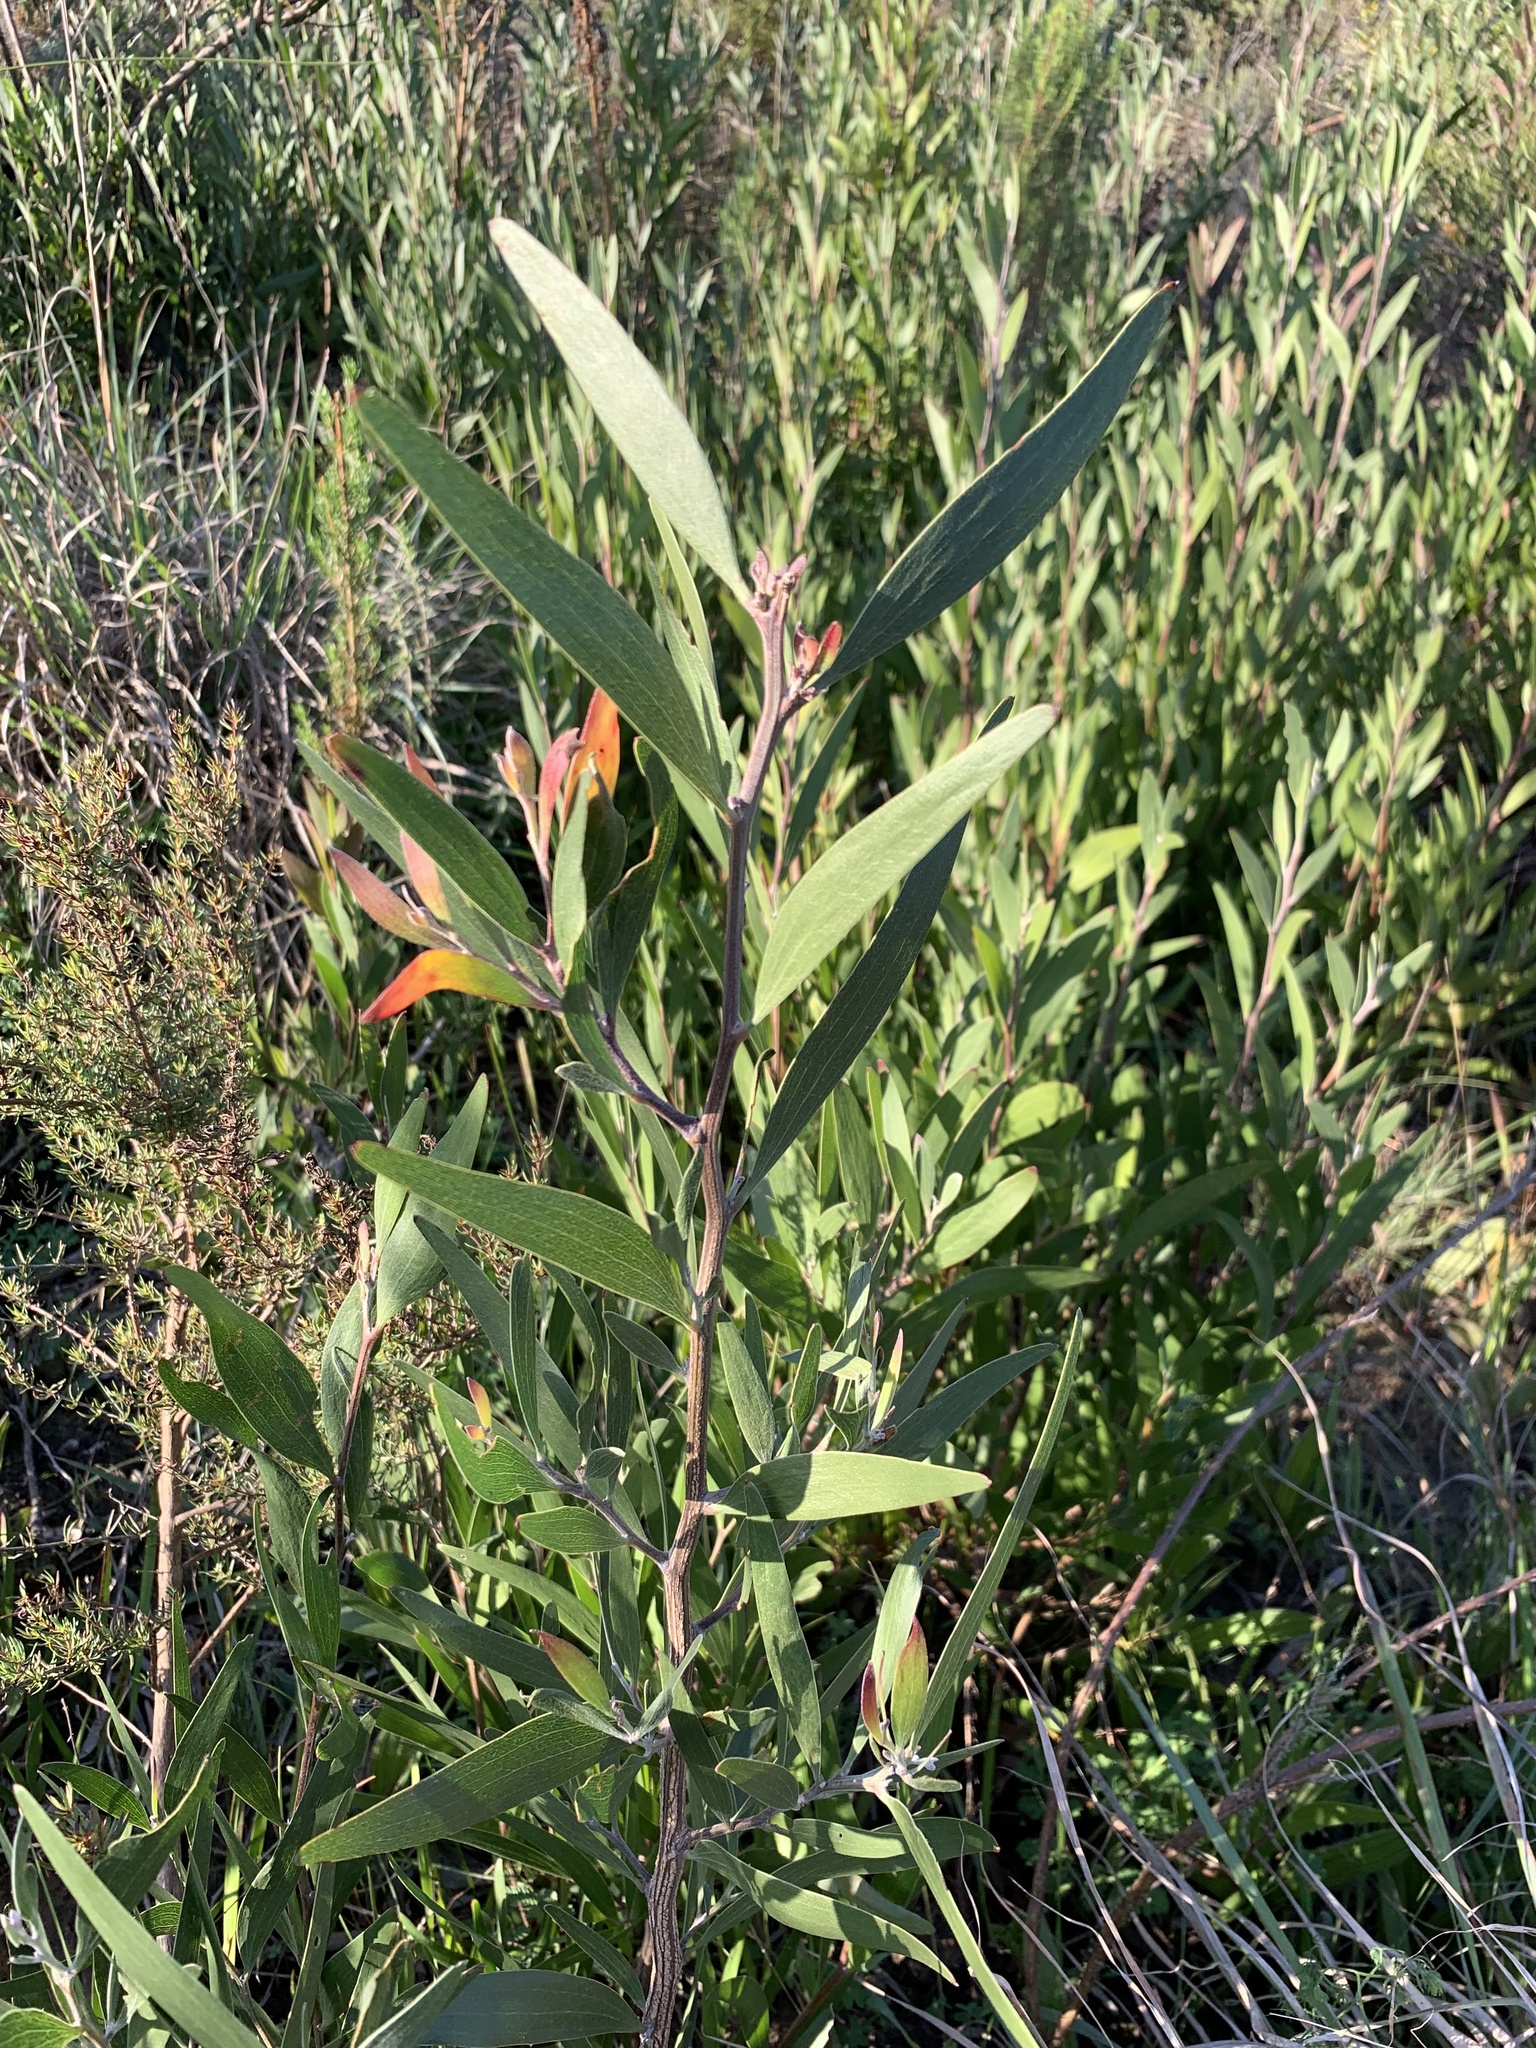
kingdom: Plantae
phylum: Tracheophyta
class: Magnoliopsida
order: Fabales
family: Fabaceae
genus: Acacia
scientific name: Acacia melanoxylon
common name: Blackwood
